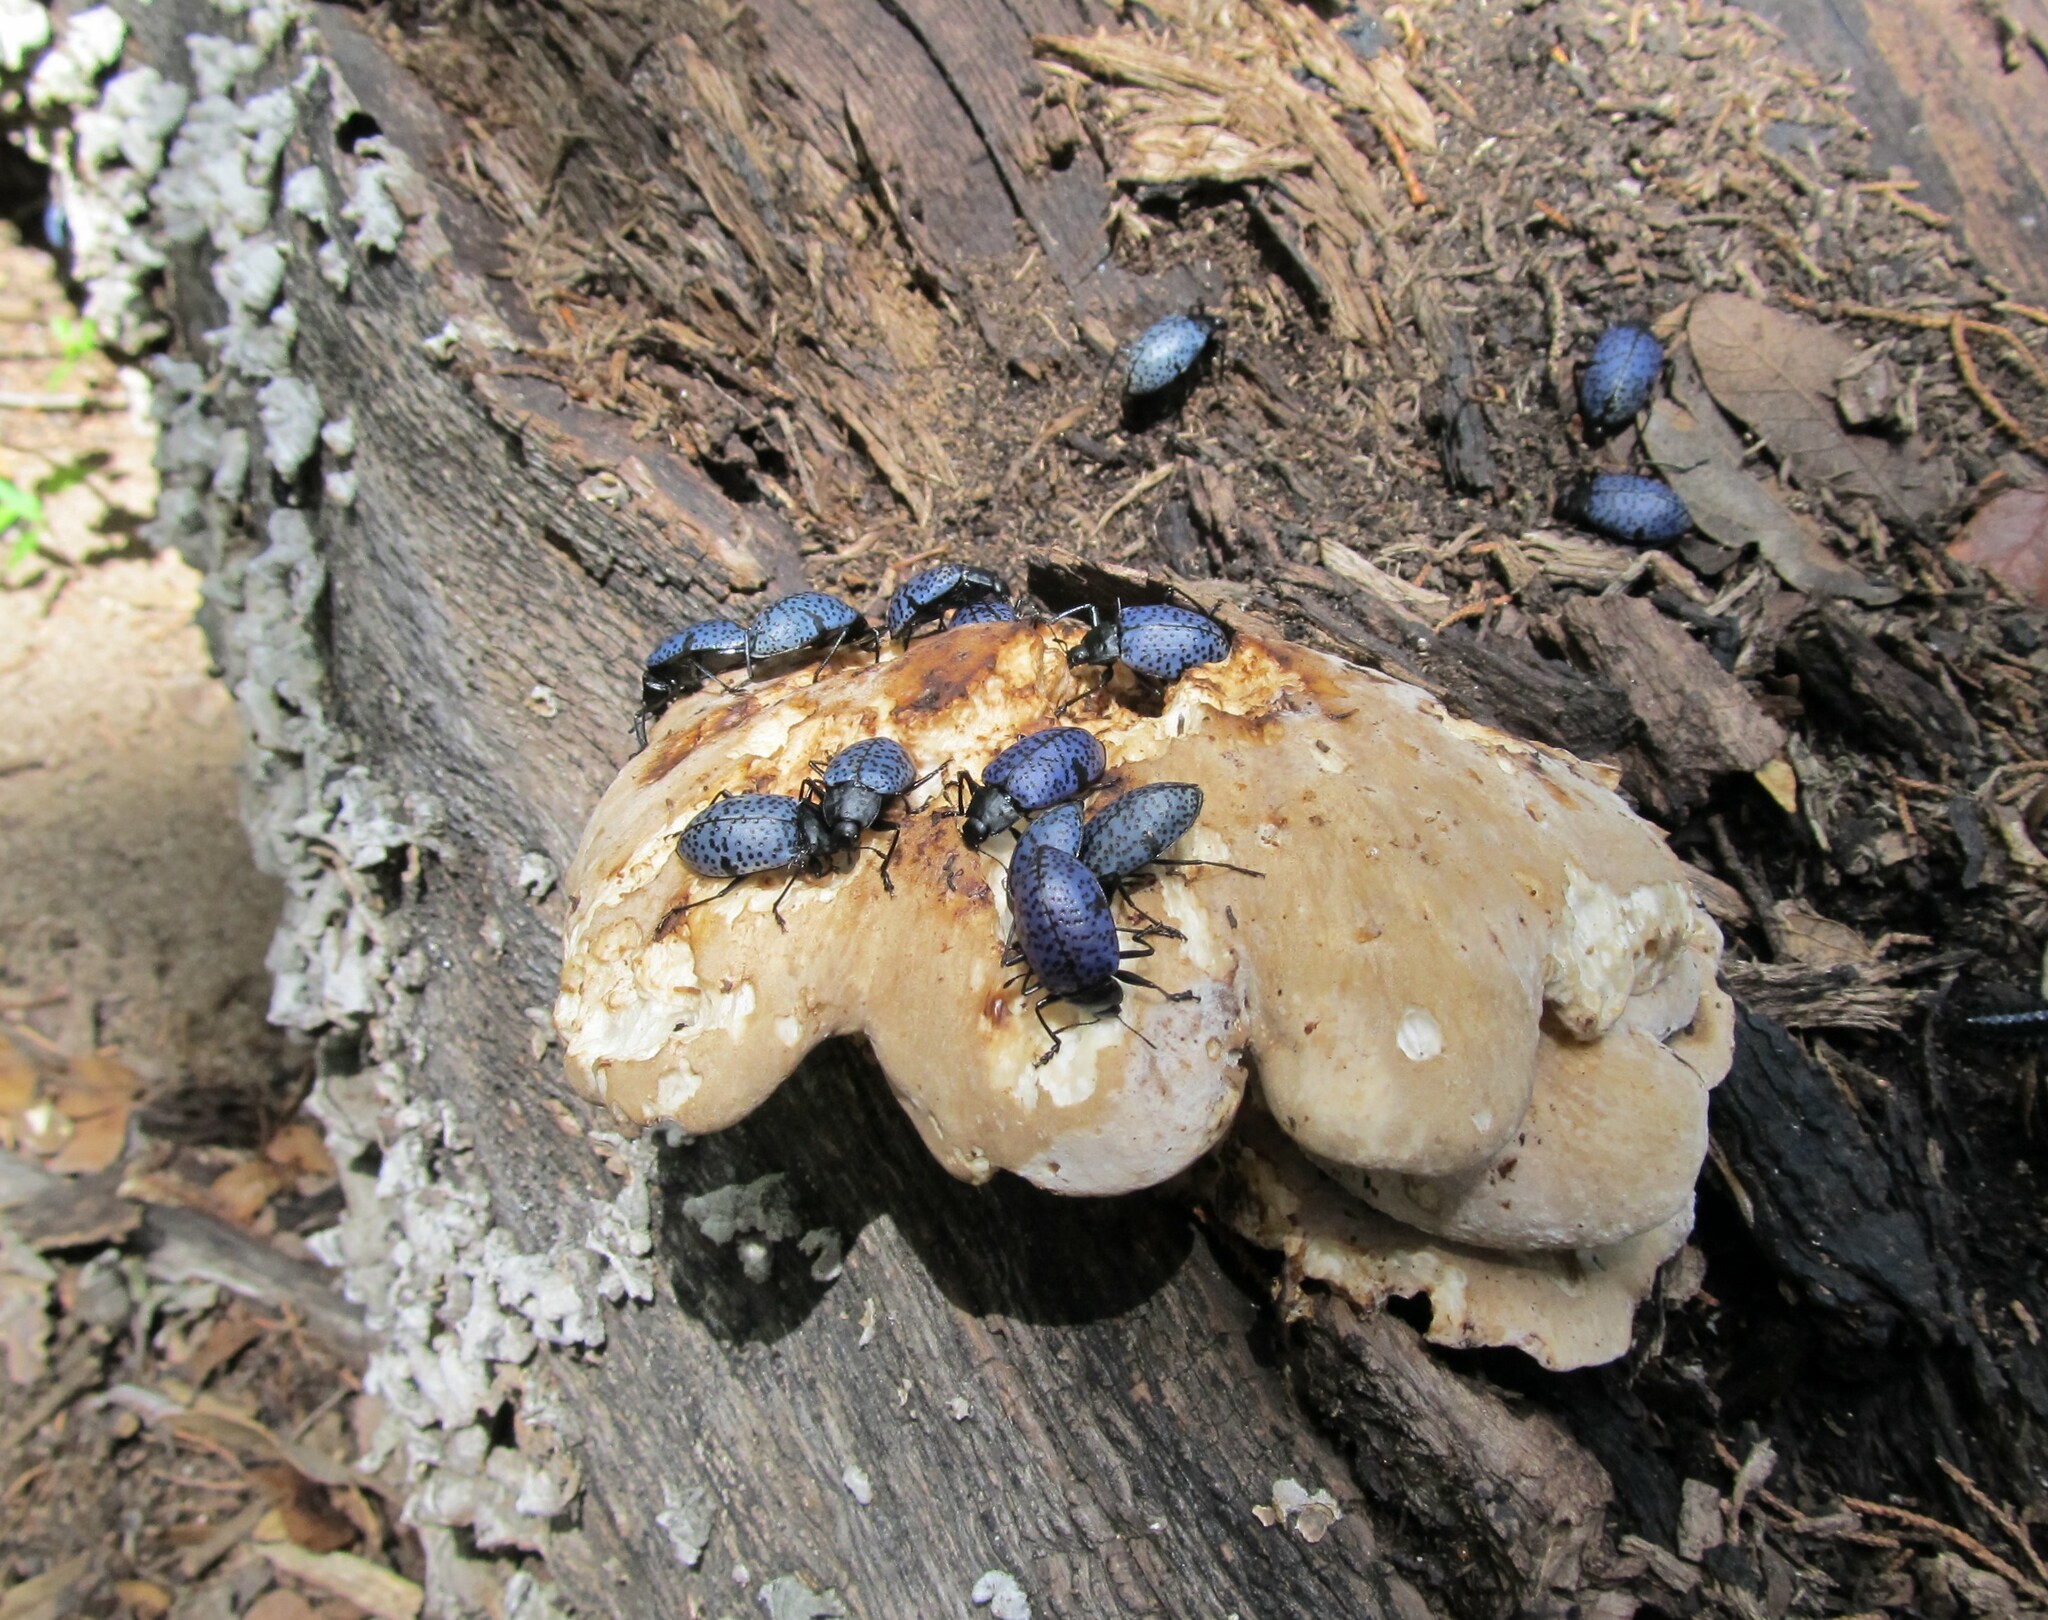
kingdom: Animalia
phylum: Arthropoda
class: Insecta
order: Coleoptera
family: Erotylidae
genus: Gibbifer
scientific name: Gibbifer californicus
